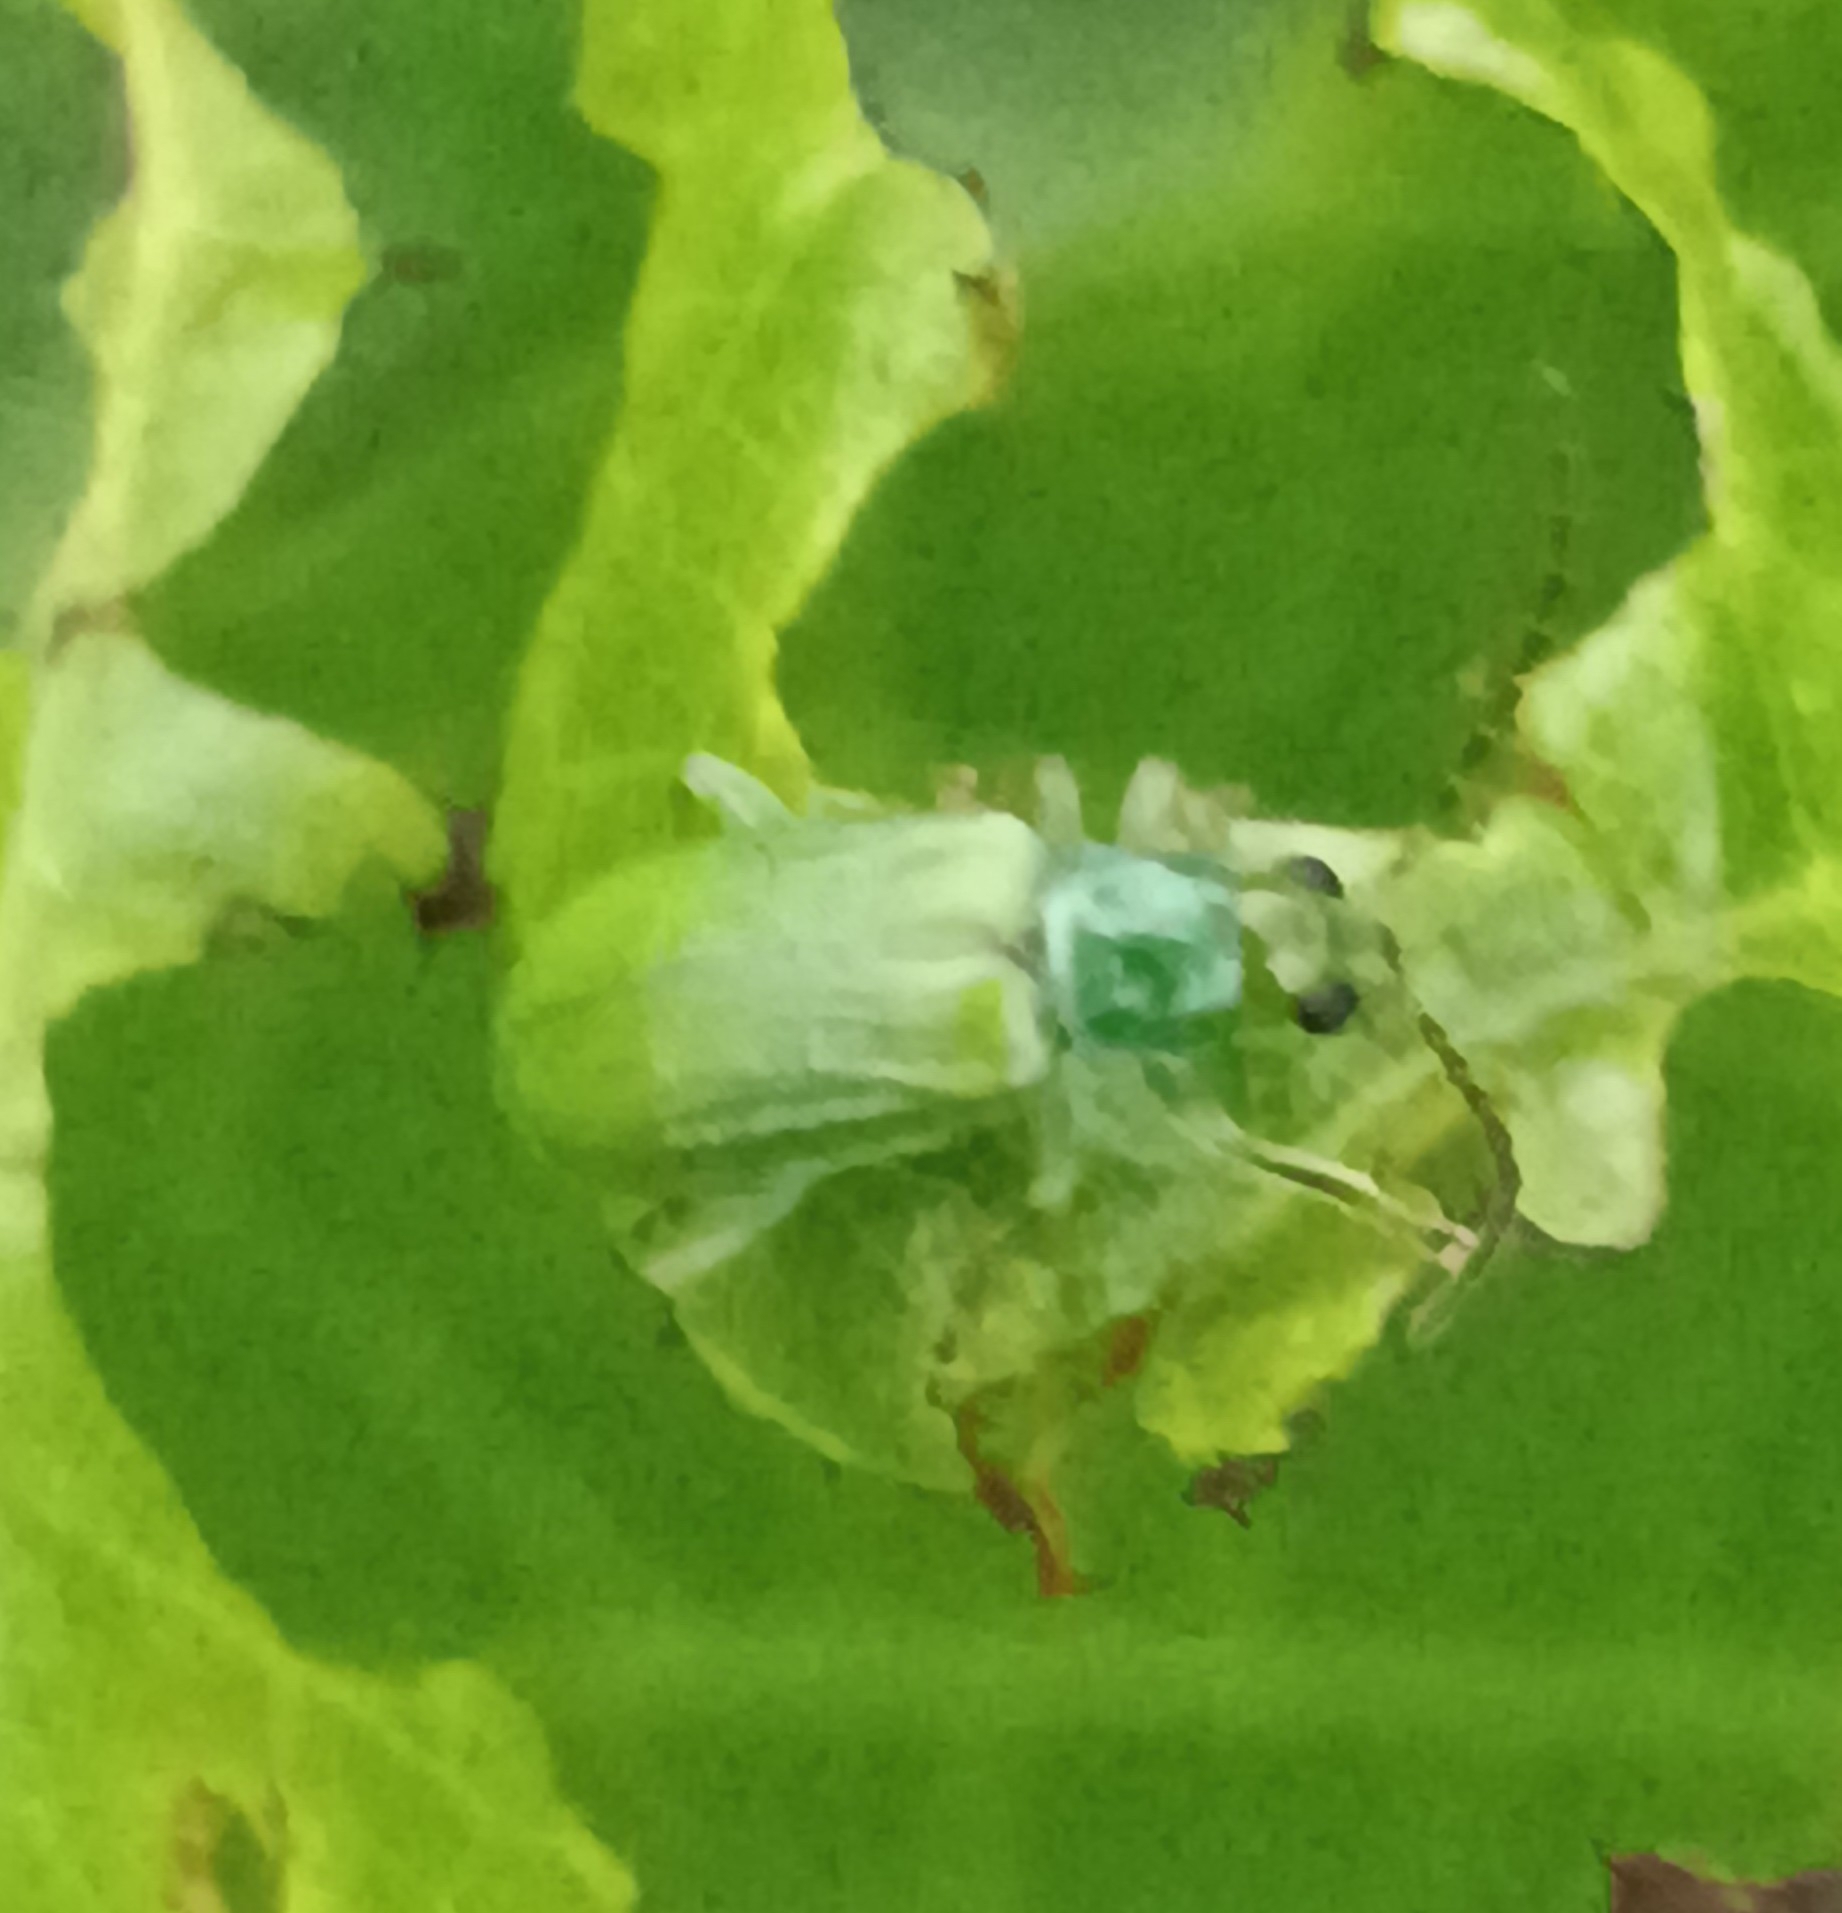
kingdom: Animalia
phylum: Arthropoda
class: Insecta
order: Coleoptera
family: Chrysomelidae
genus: Diabrotica
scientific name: Diabrotica barberi
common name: Northern corn rootworm
